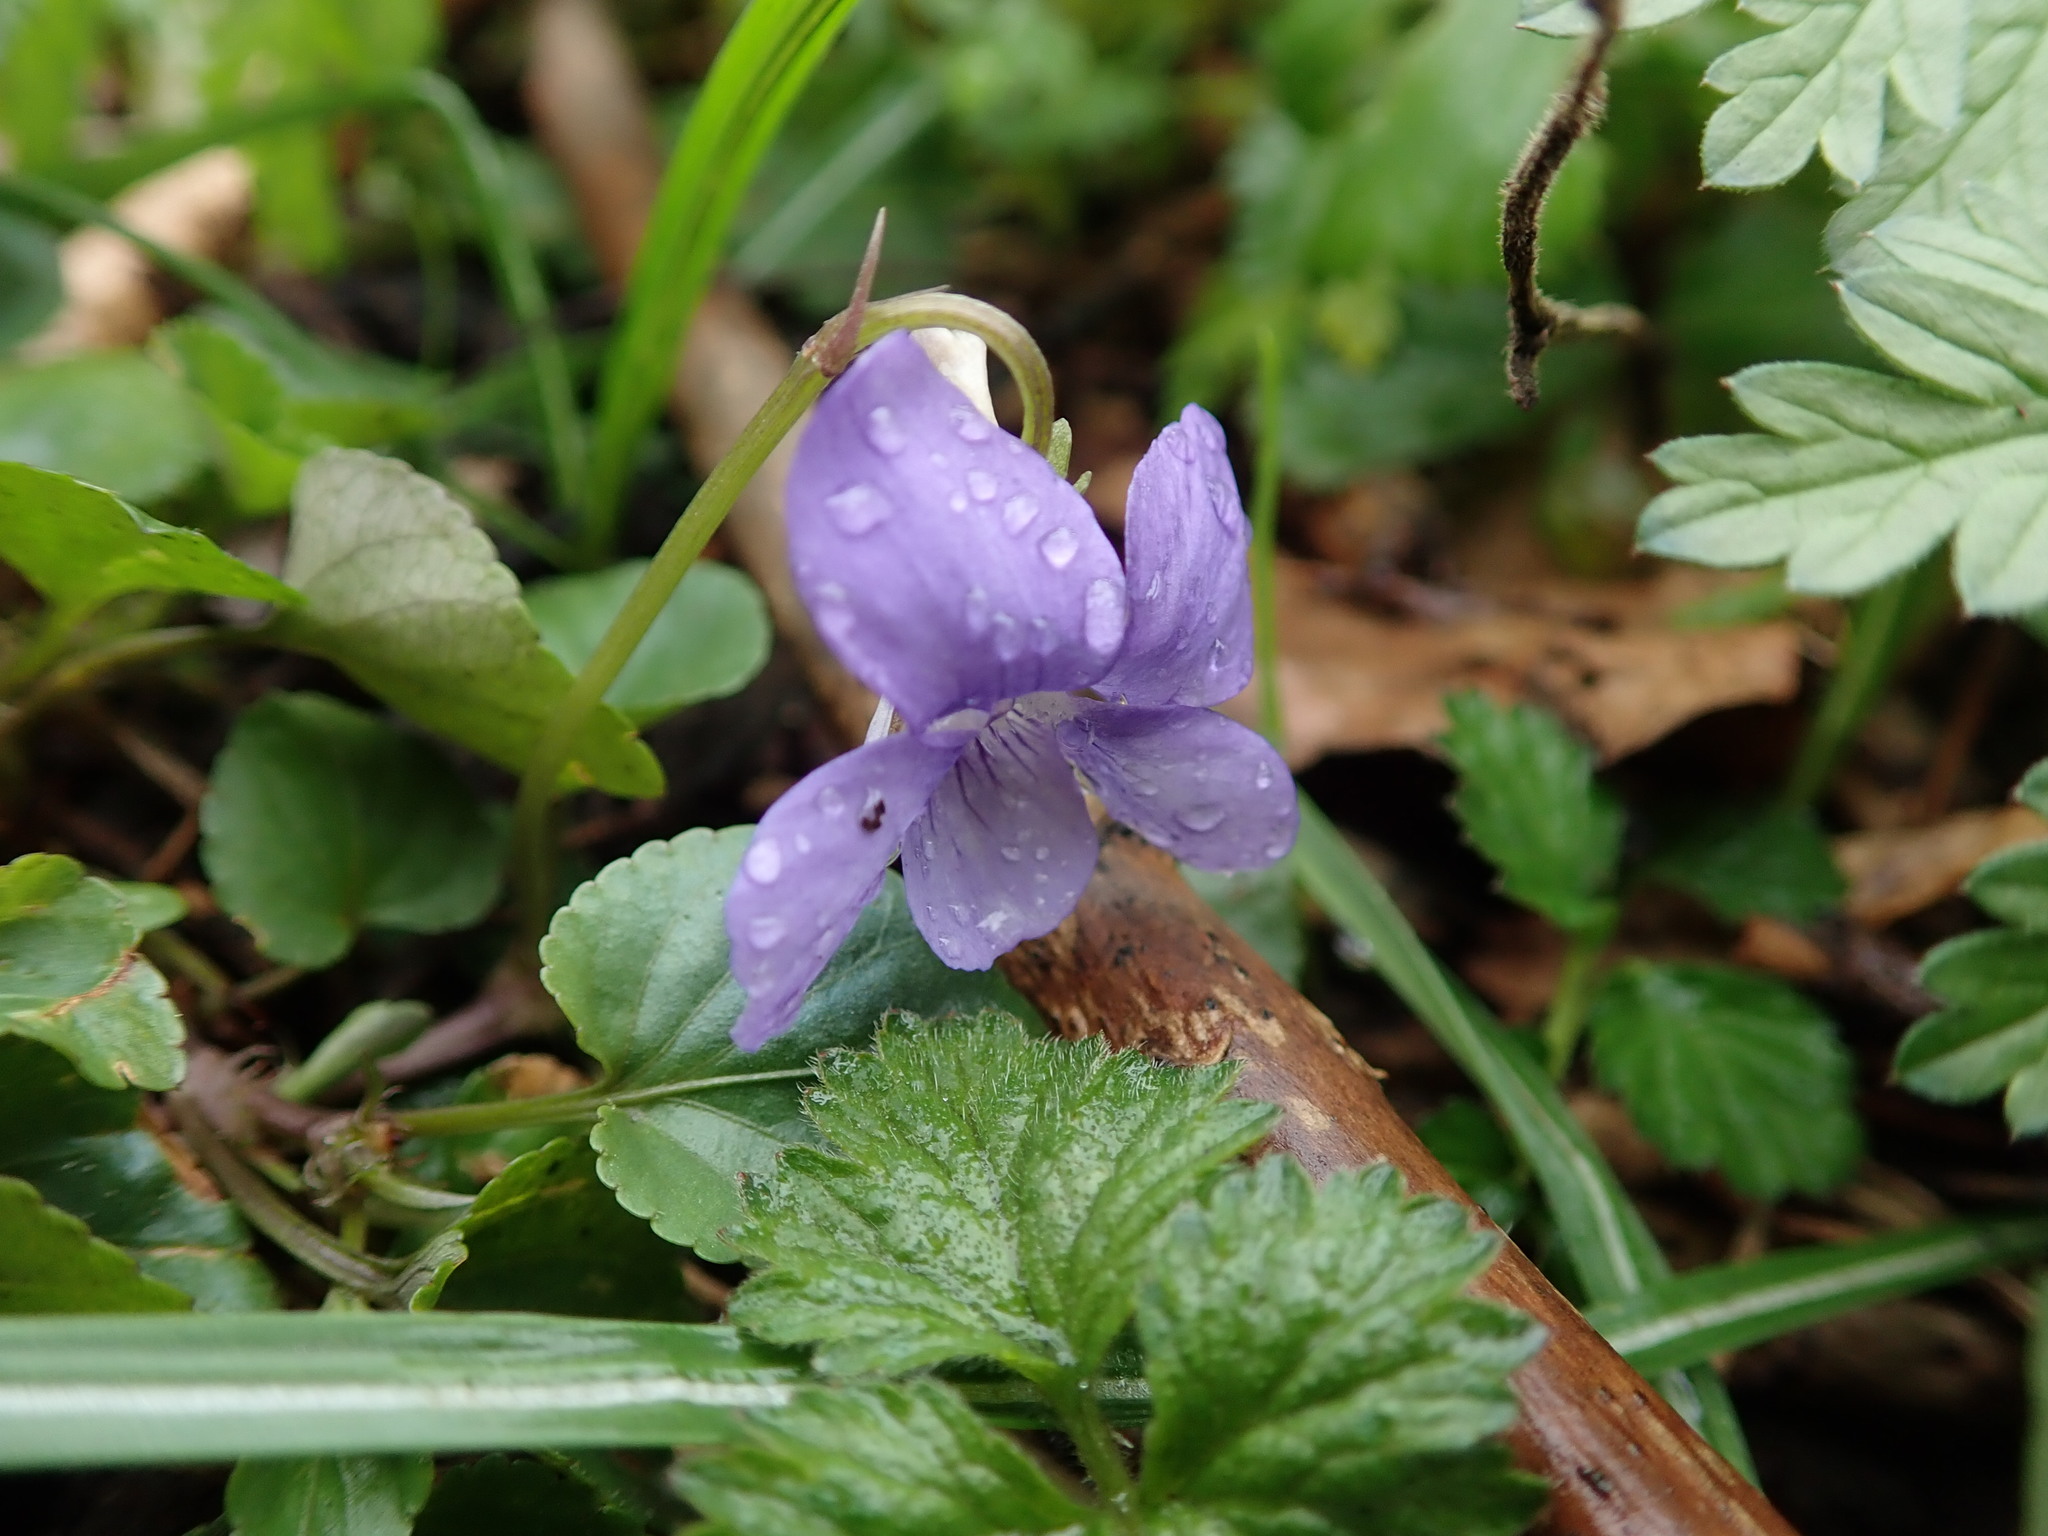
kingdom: Plantae
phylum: Tracheophyta
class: Magnoliopsida
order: Malpighiales
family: Violaceae
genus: Viola
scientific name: Viola riviniana
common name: Common dog-violet
